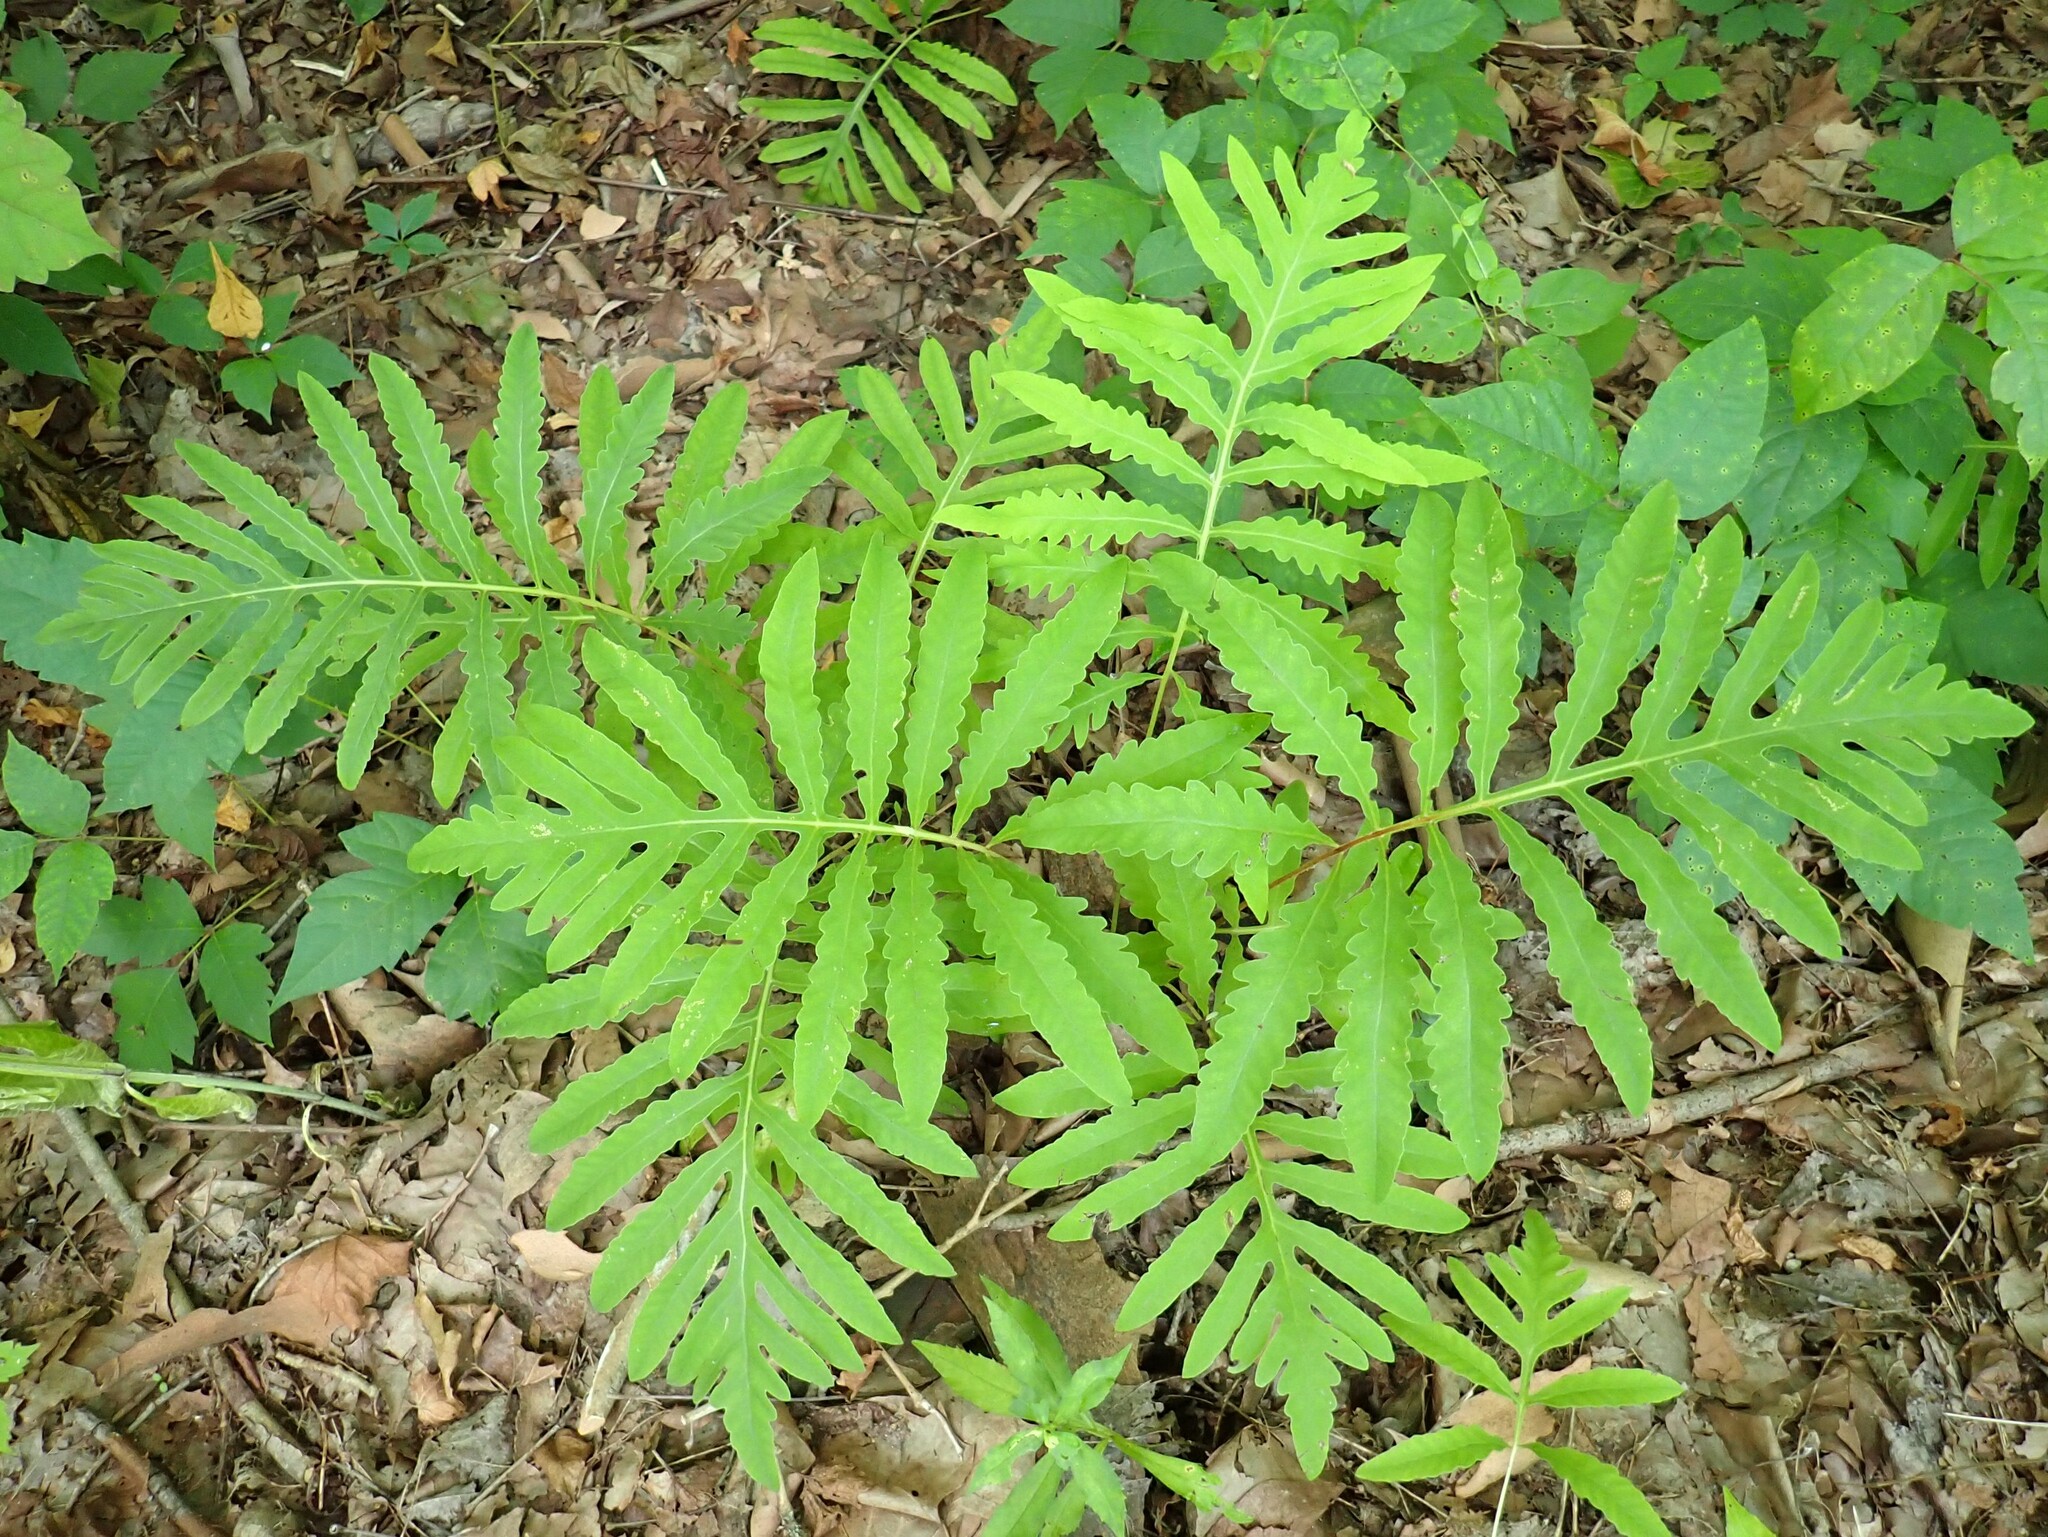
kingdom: Plantae
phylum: Tracheophyta
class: Polypodiopsida
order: Polypodiales
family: Onocleaceae
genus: Onoclea
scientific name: Onoclea sensibilis
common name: Sensitive fern
